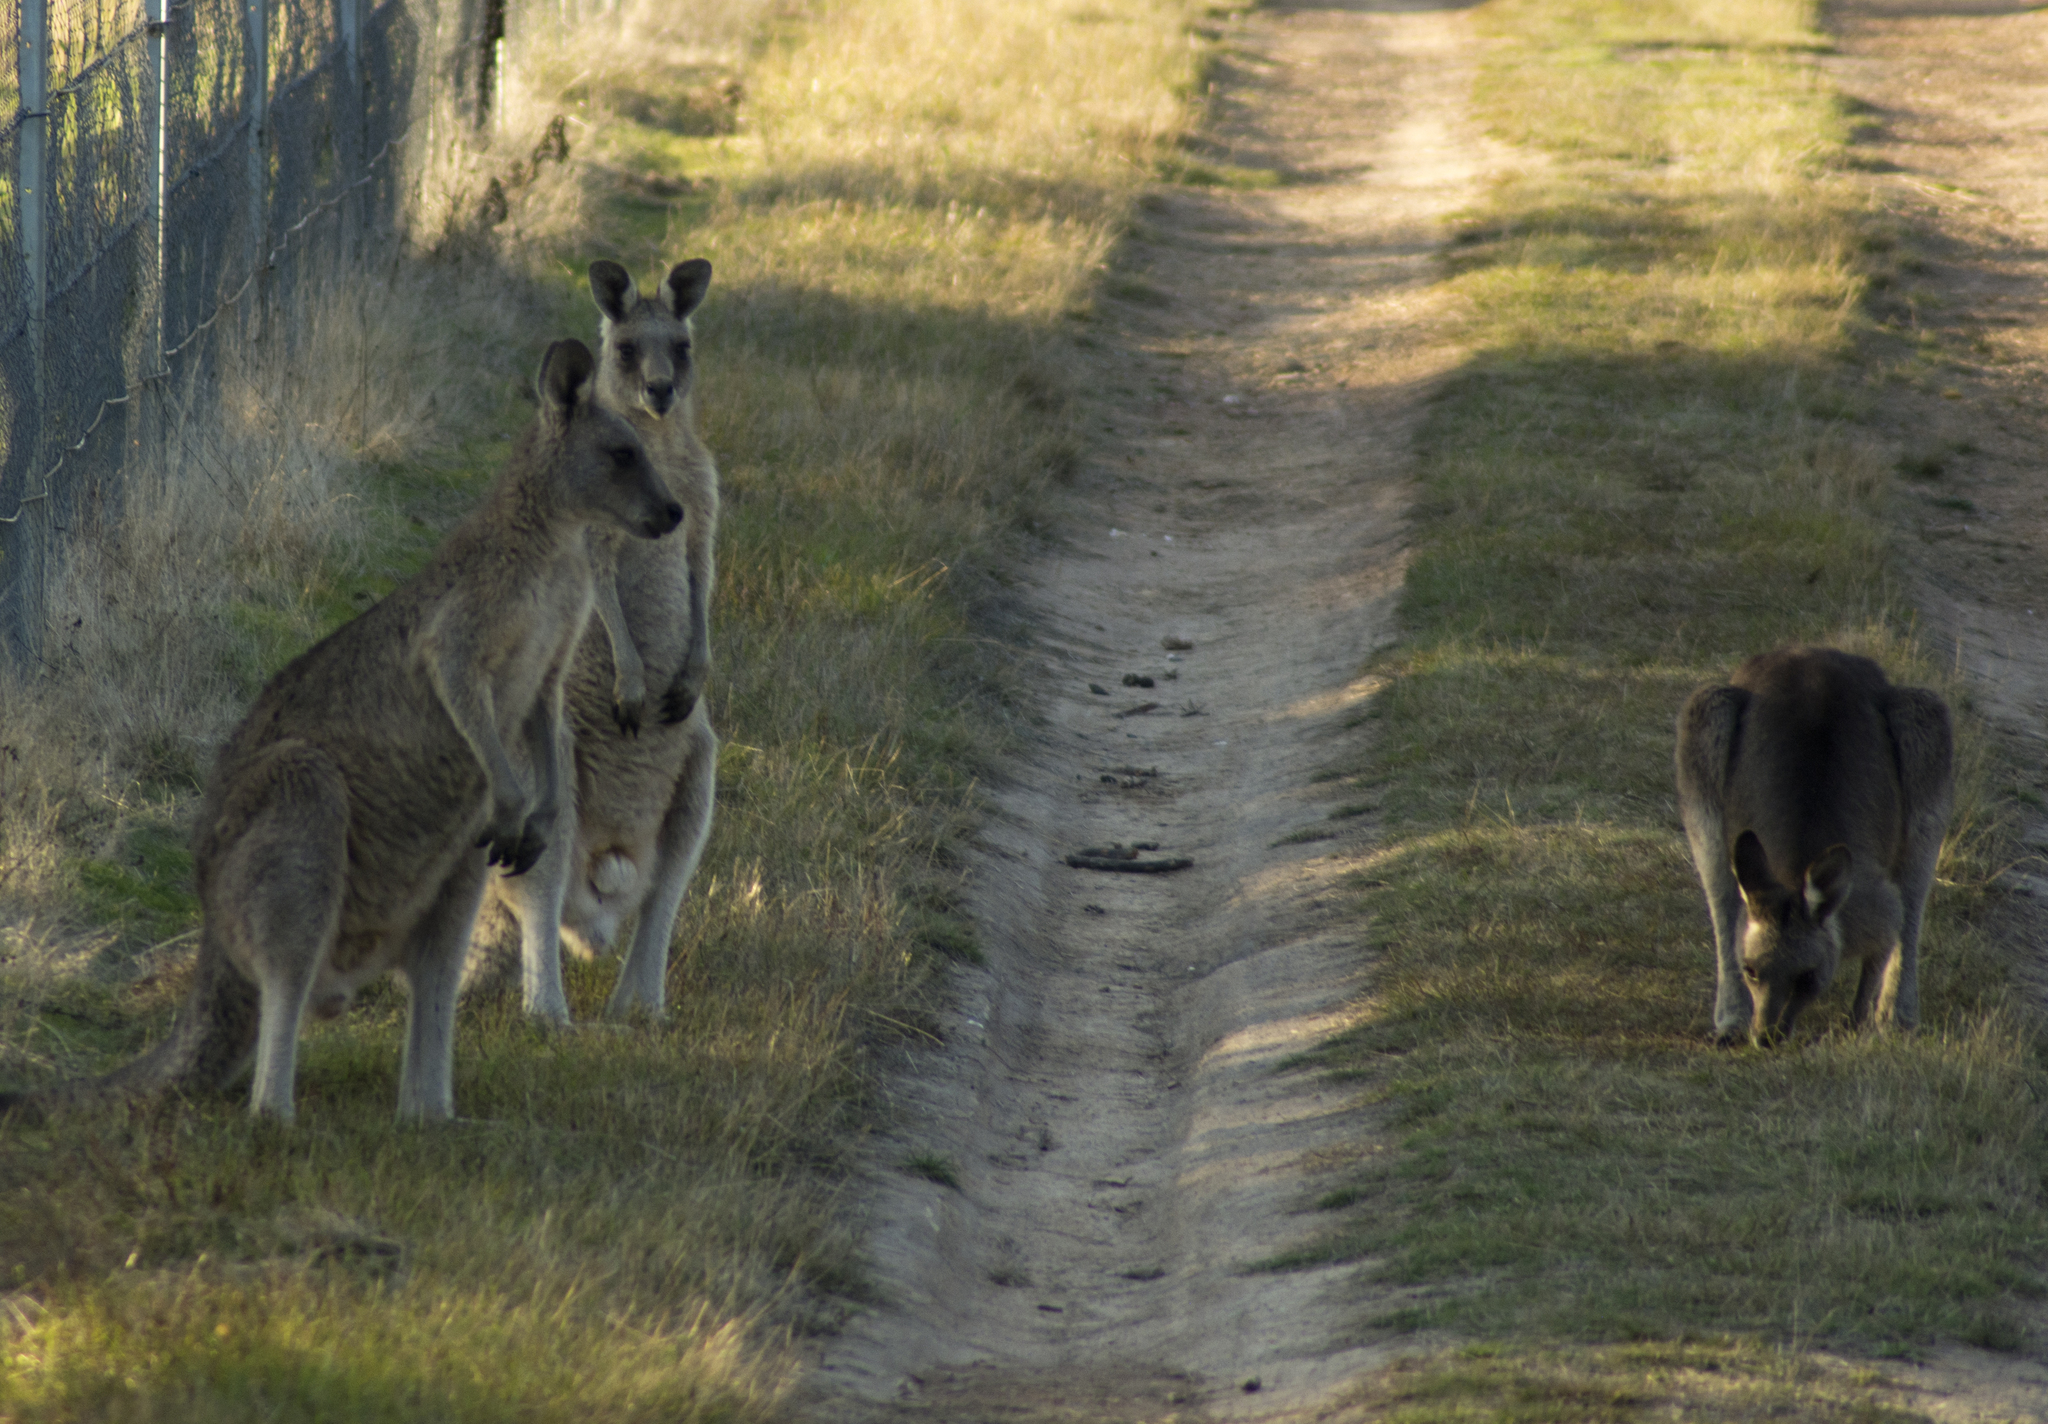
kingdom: Animalia
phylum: Chordata
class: Mammalia
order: Diprotodontia
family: Macropodidae
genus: Macropus
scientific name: Macropus giganteus
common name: Eastern grey kangaroo
